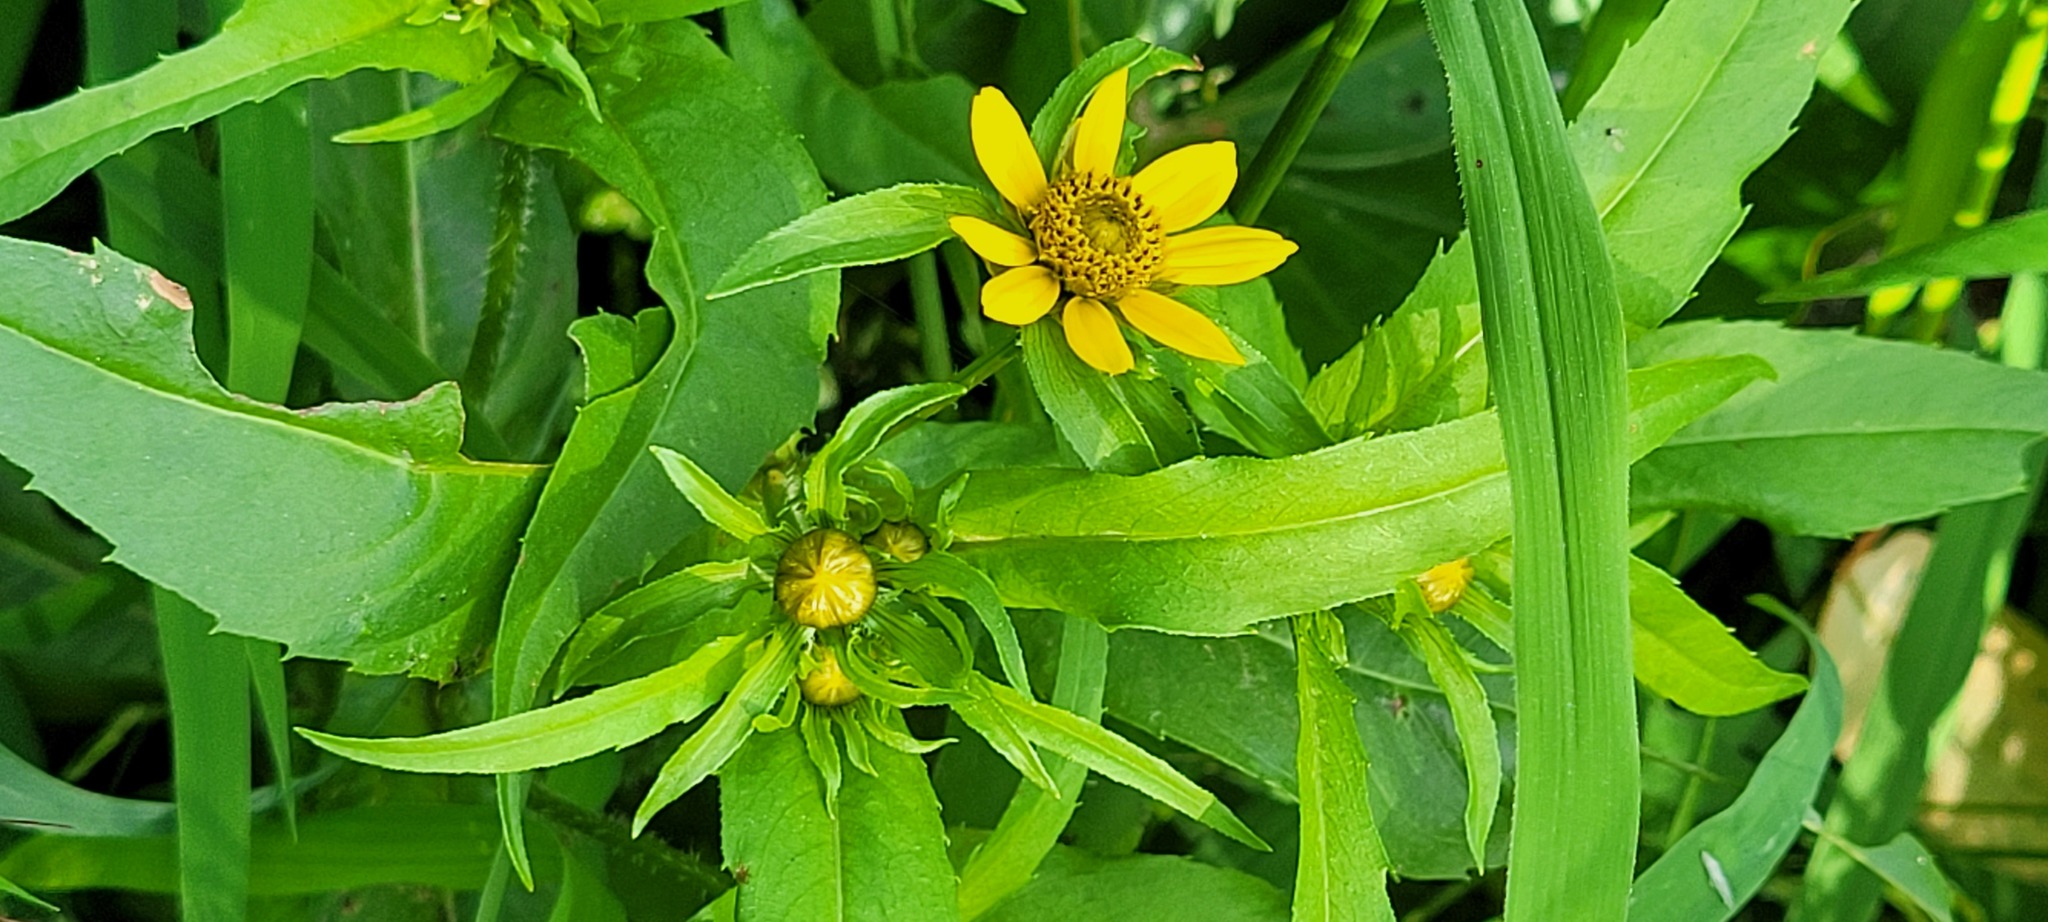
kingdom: Plantae
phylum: Tracheophyta
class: Magnoliopsida
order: Asterales
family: Asteraceae
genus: Bidens
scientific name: Bidens cernua
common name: Nodding bur-marigold
